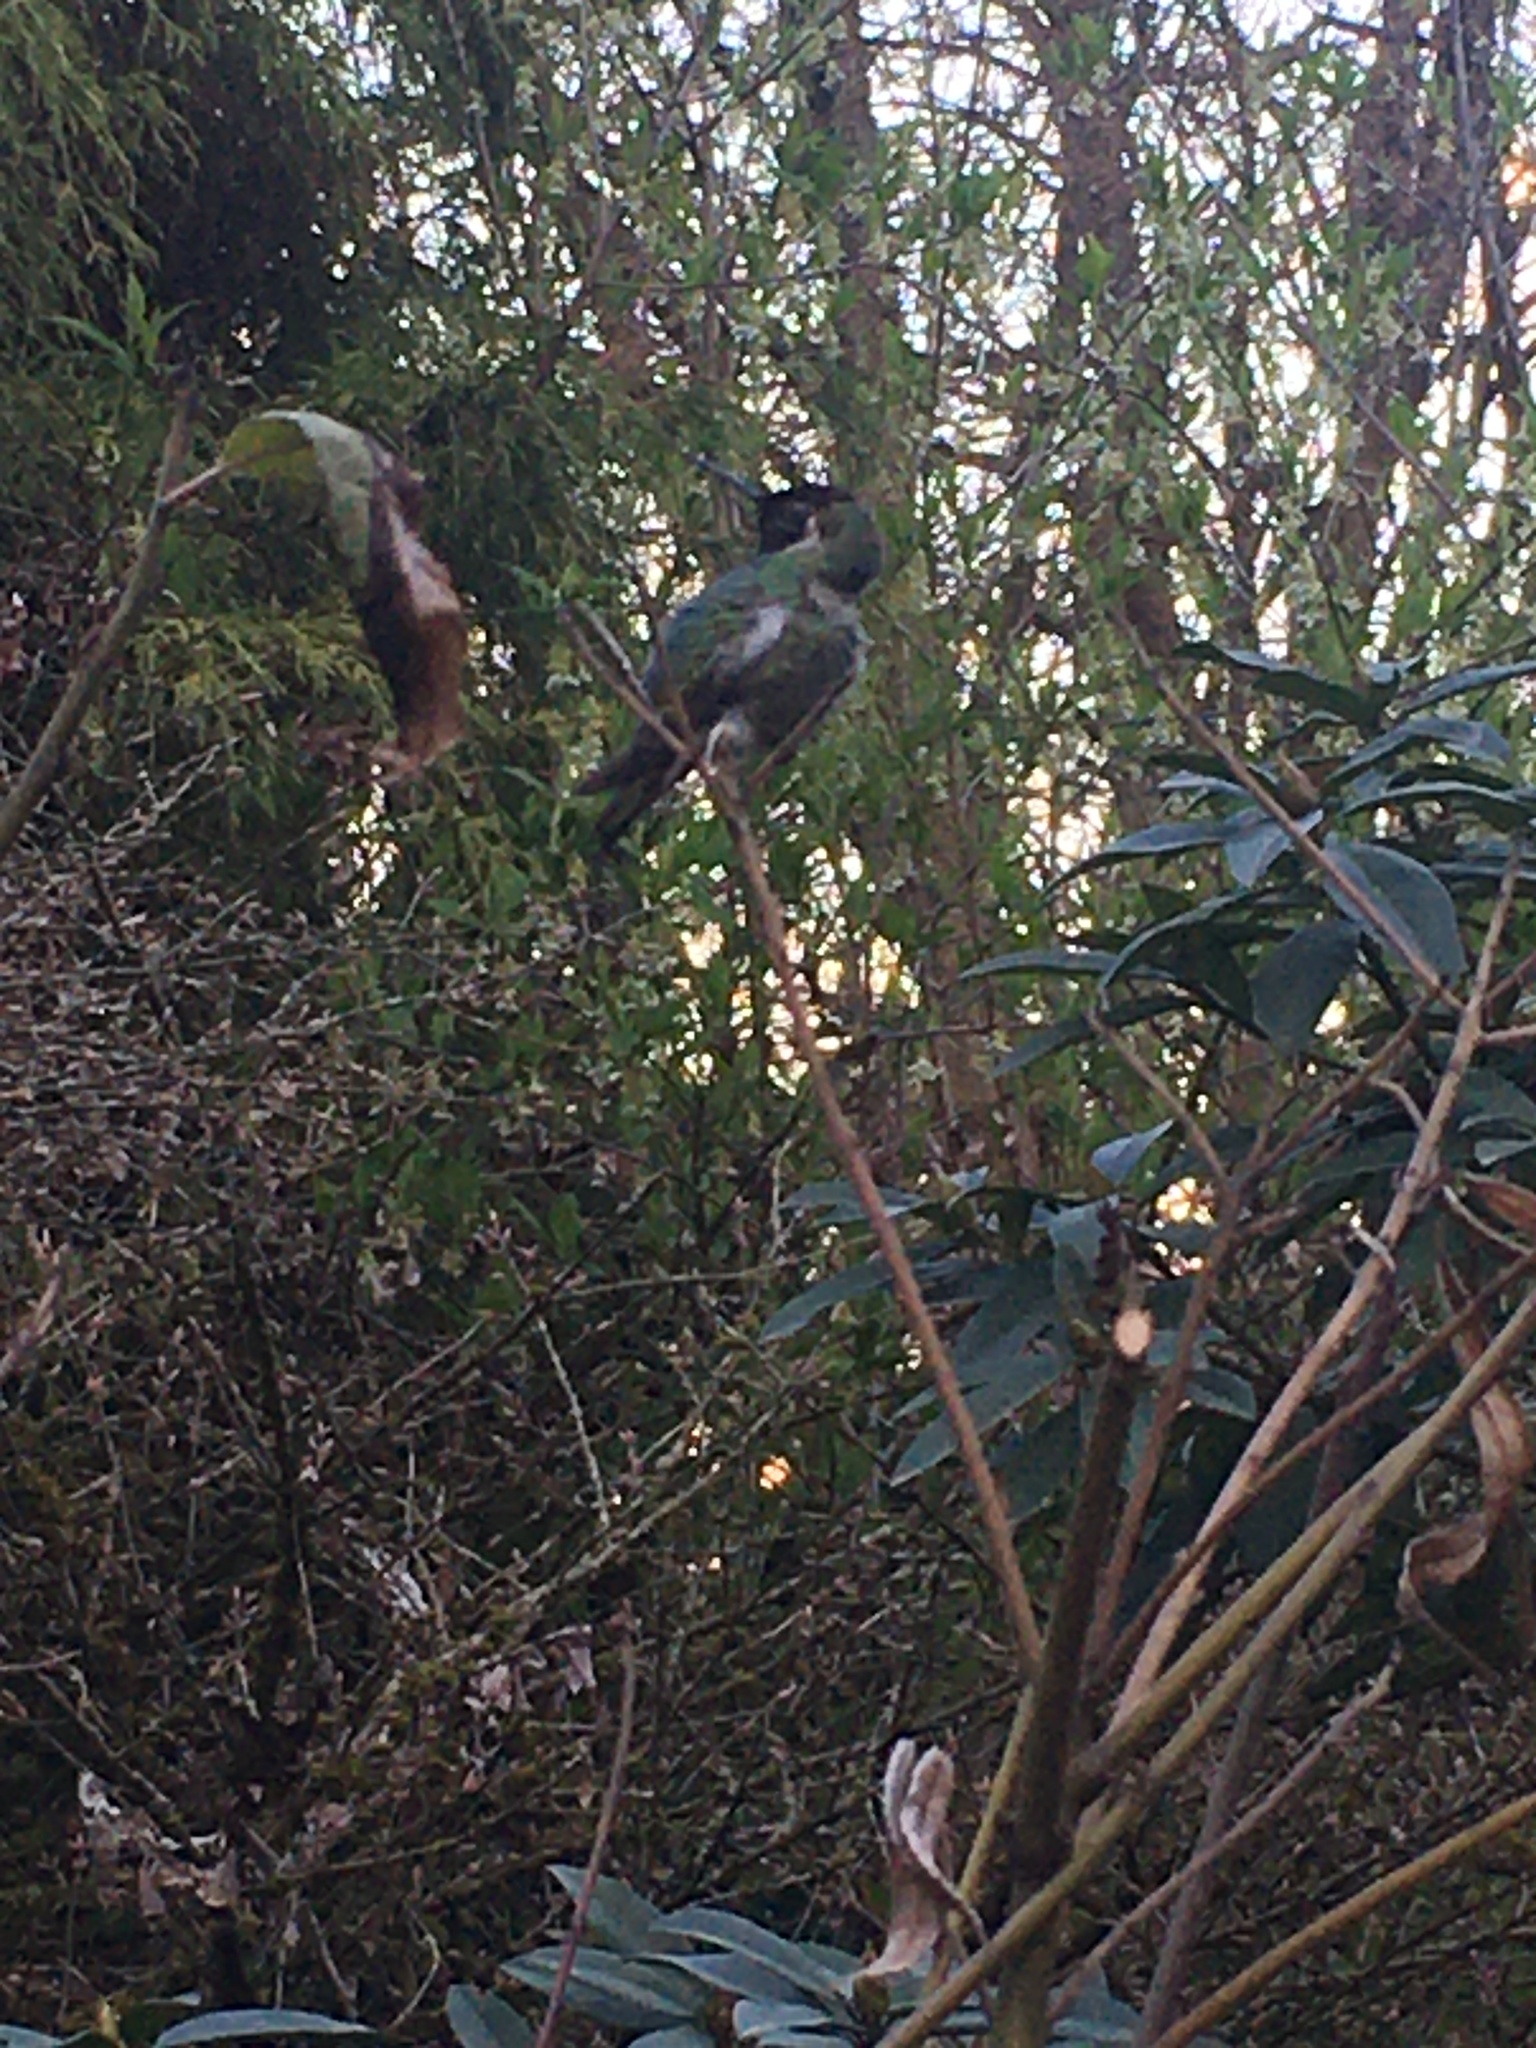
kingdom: Animalia
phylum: Chordata
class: Aves
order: Apodiformes
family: Trochilidae
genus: Calypte
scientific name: Calypte anna
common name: Anna's hummingbird
